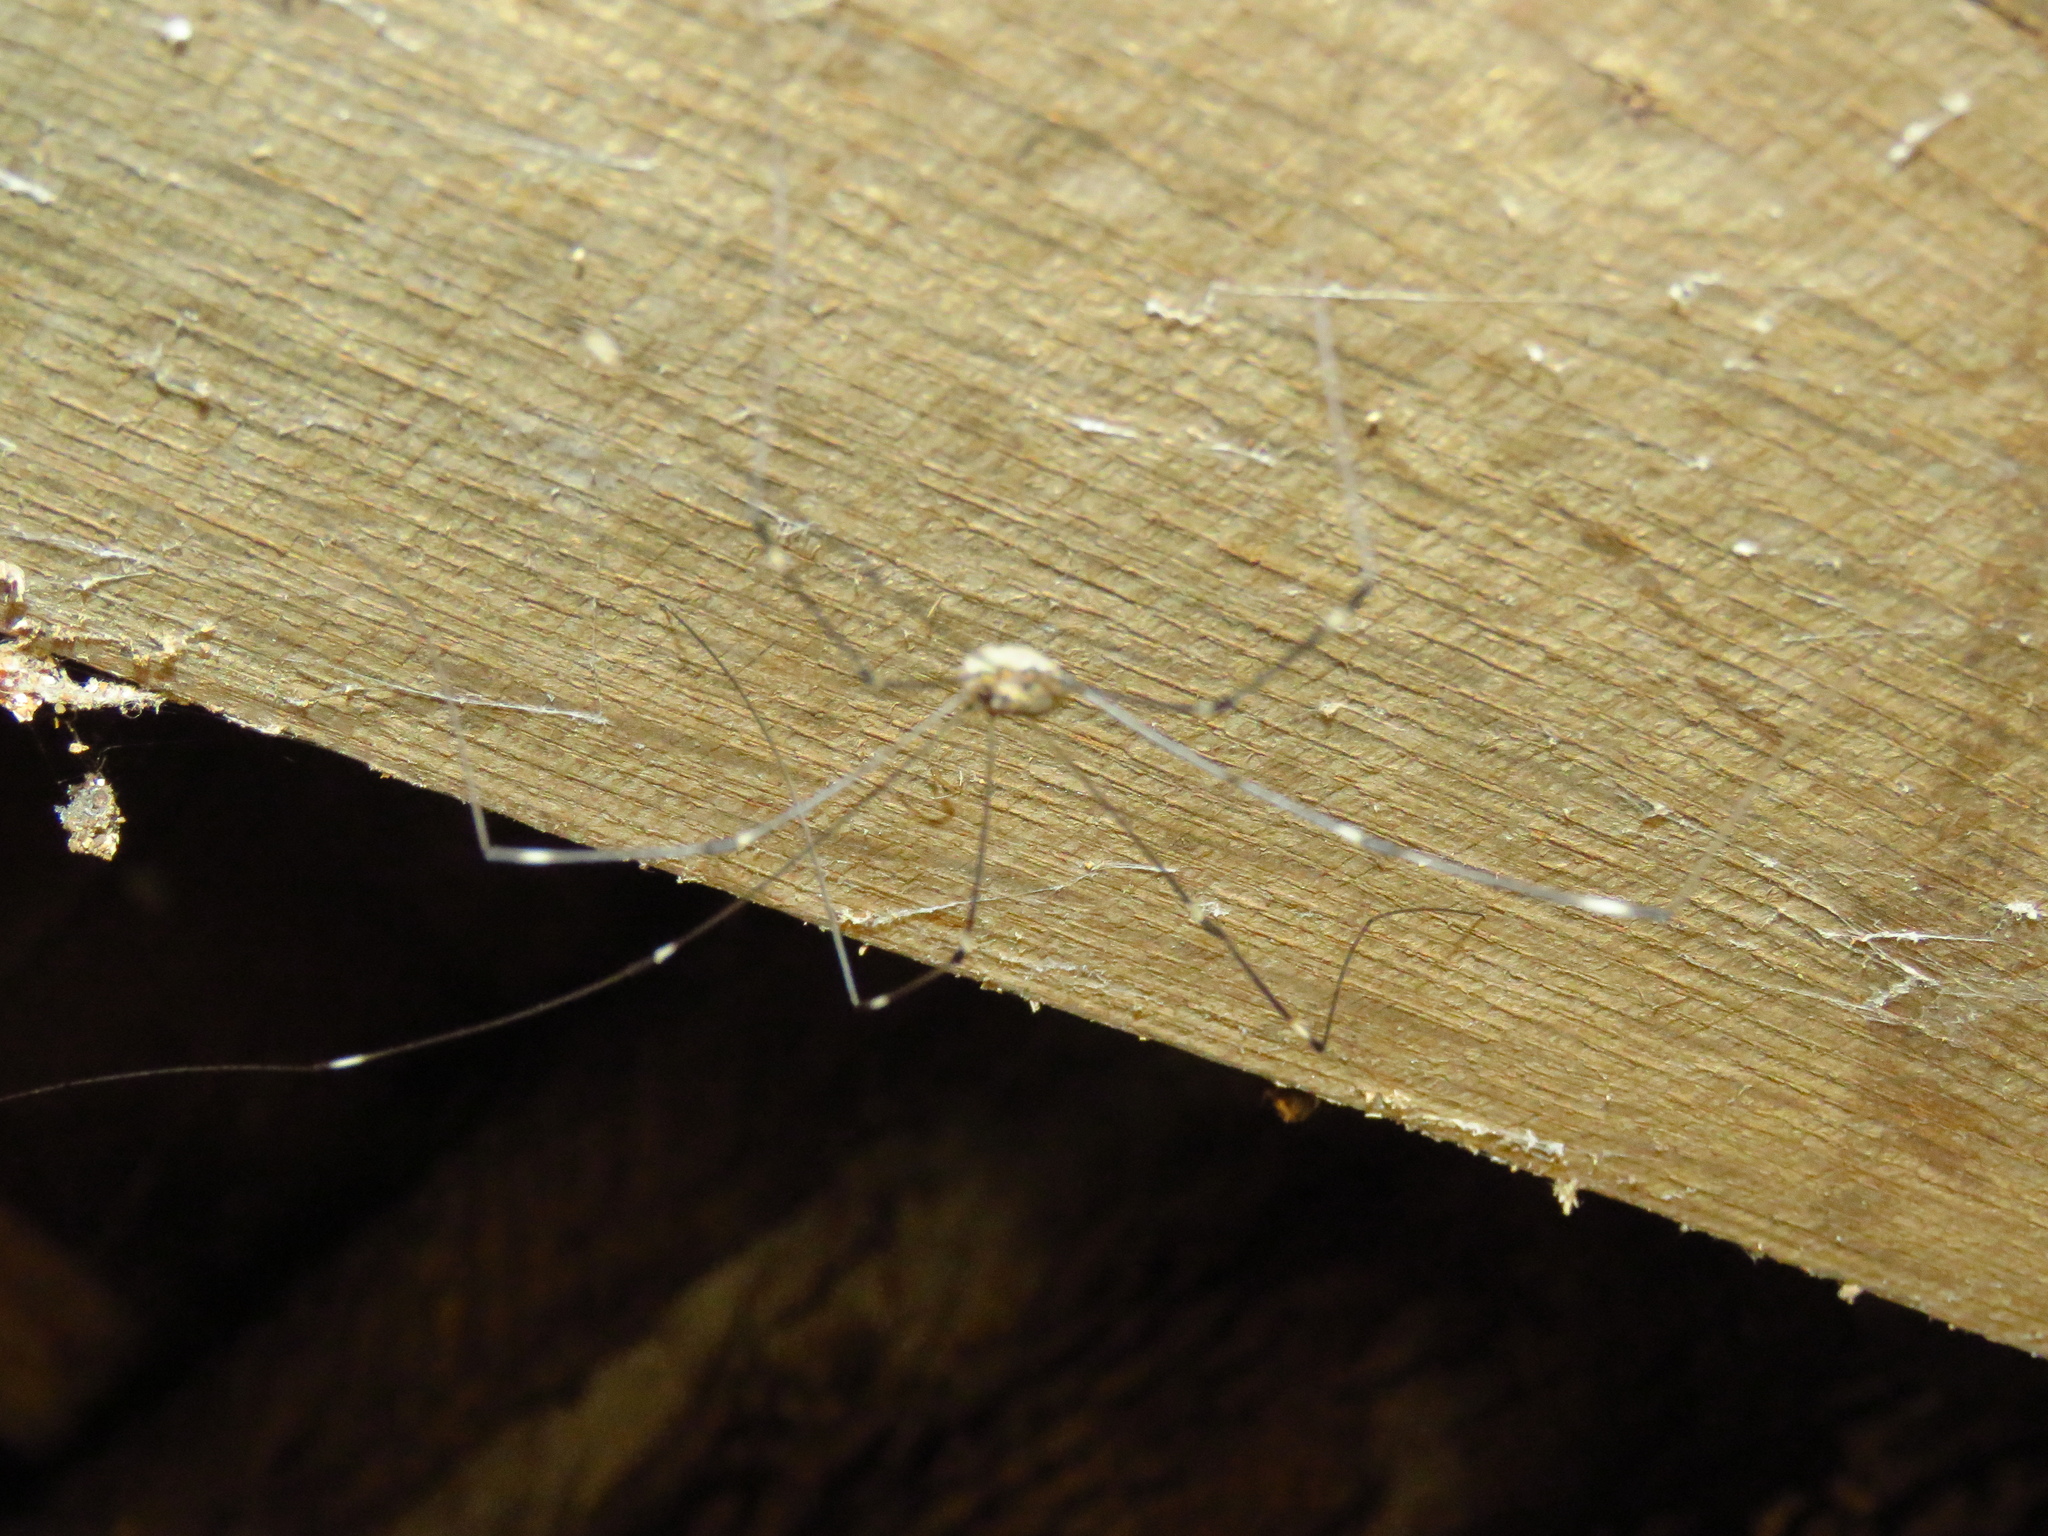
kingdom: Animalia
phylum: Arthropoda
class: Arachnida
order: Opiliones
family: Sclerosomatidae
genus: Leiobunum
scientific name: Leiobunum townsendi
